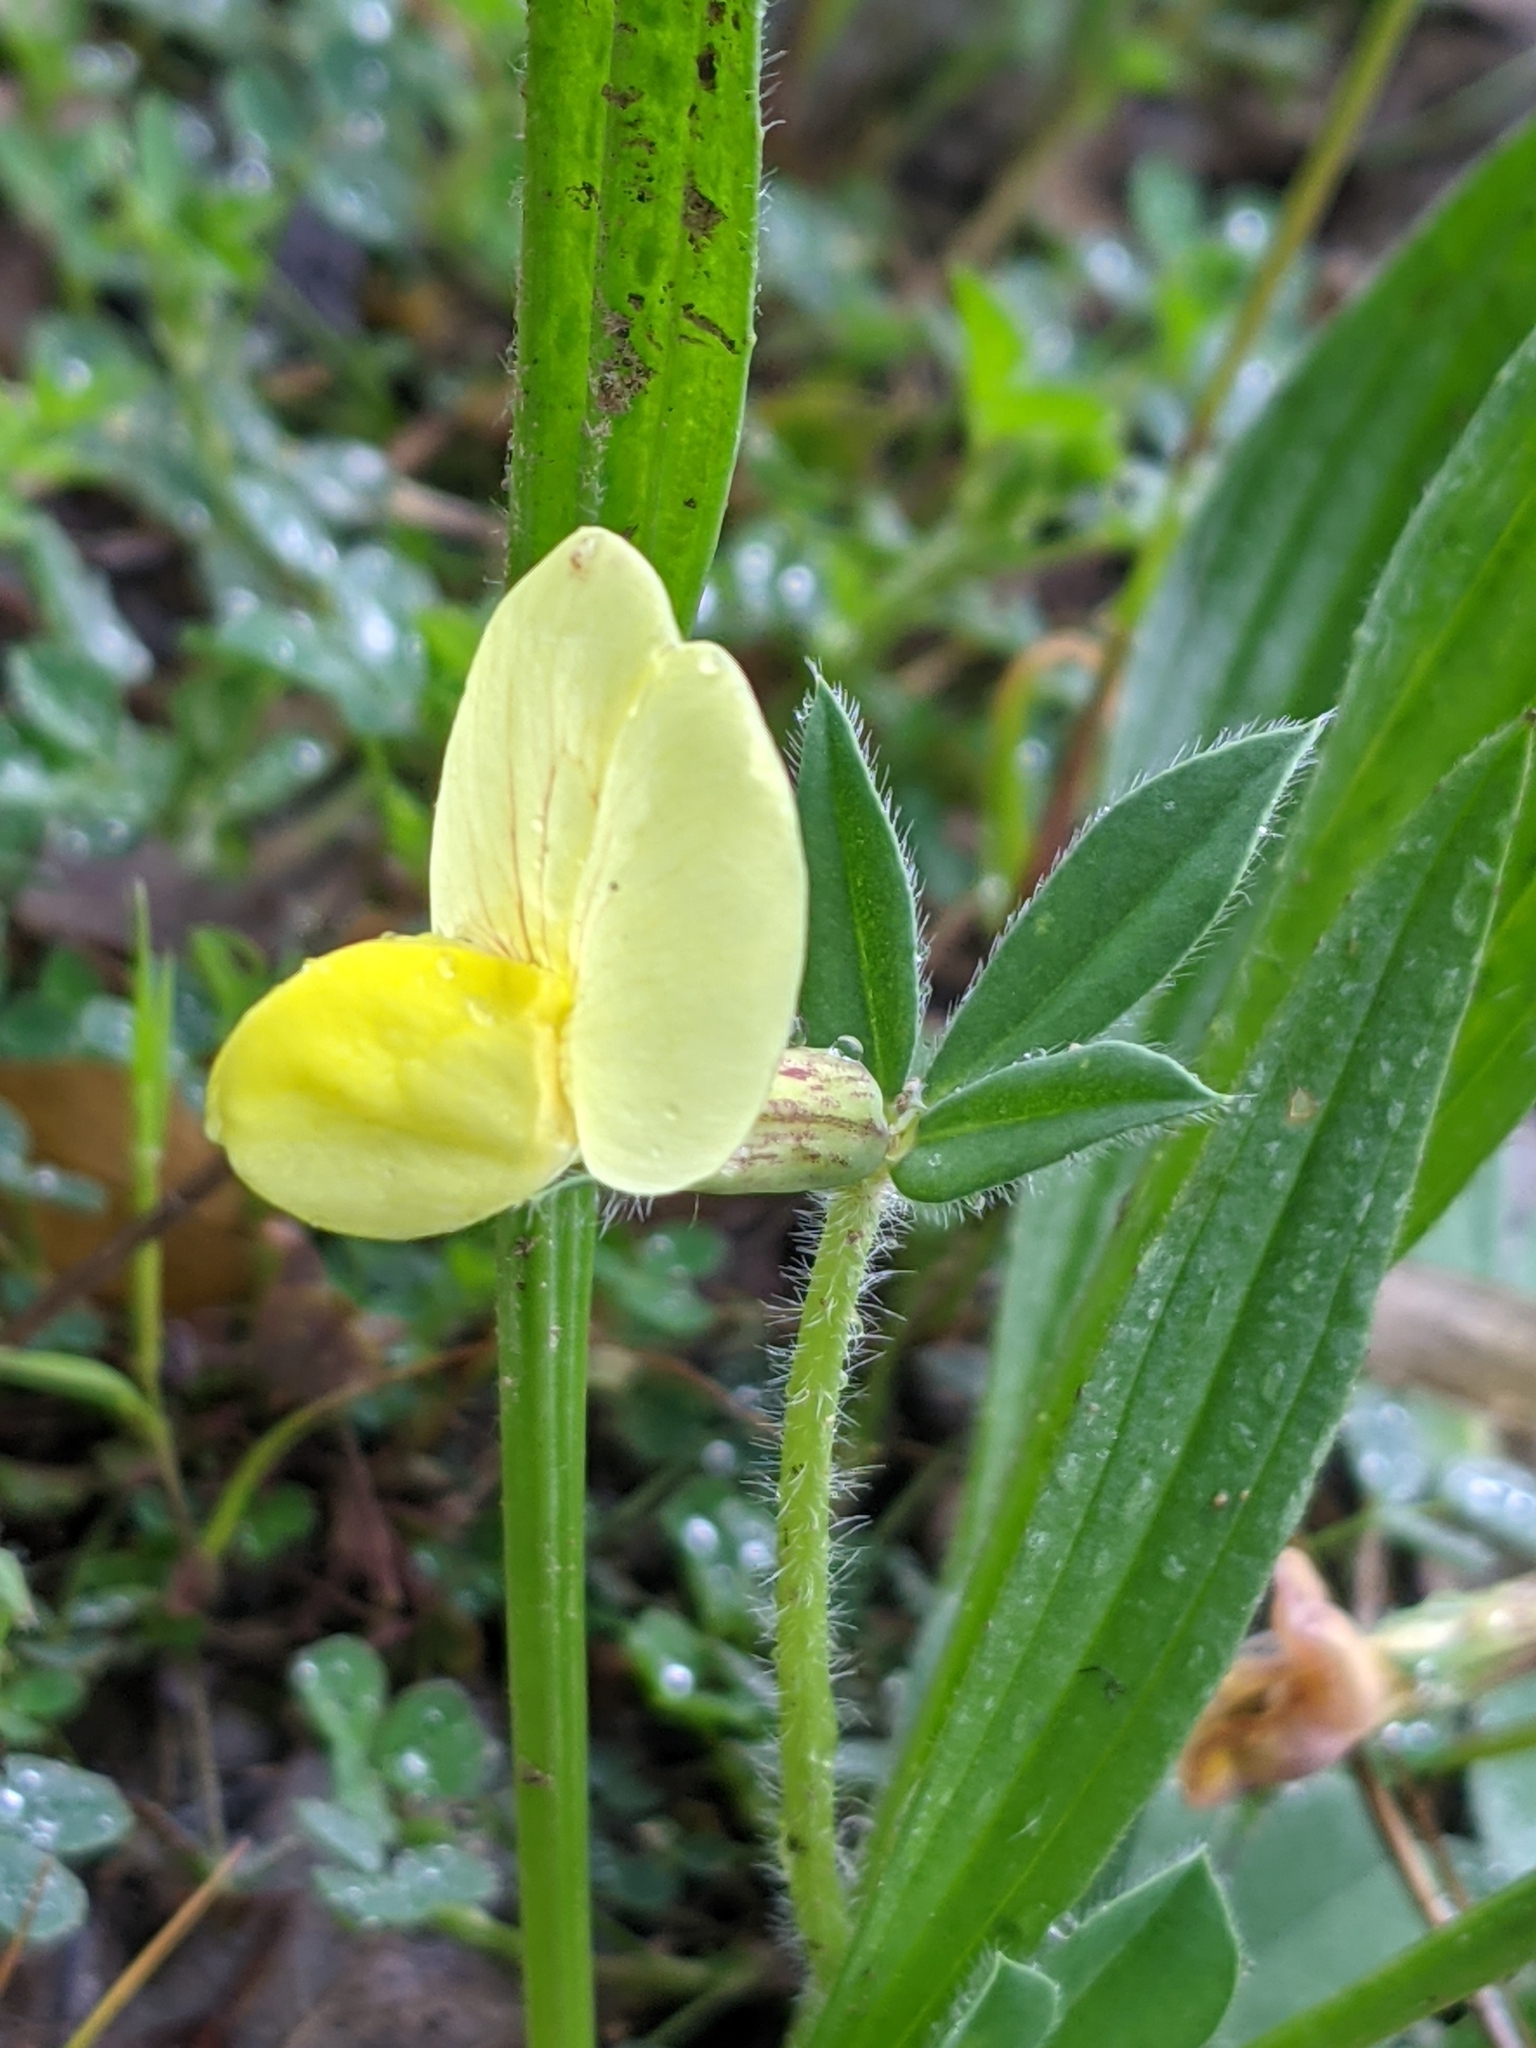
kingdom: Plantae
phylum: Tracheophyta
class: Magnoliopsida
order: Fabales
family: Fabaceae
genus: Lotus
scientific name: Lotus maritimus
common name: Dragon's-teeth
